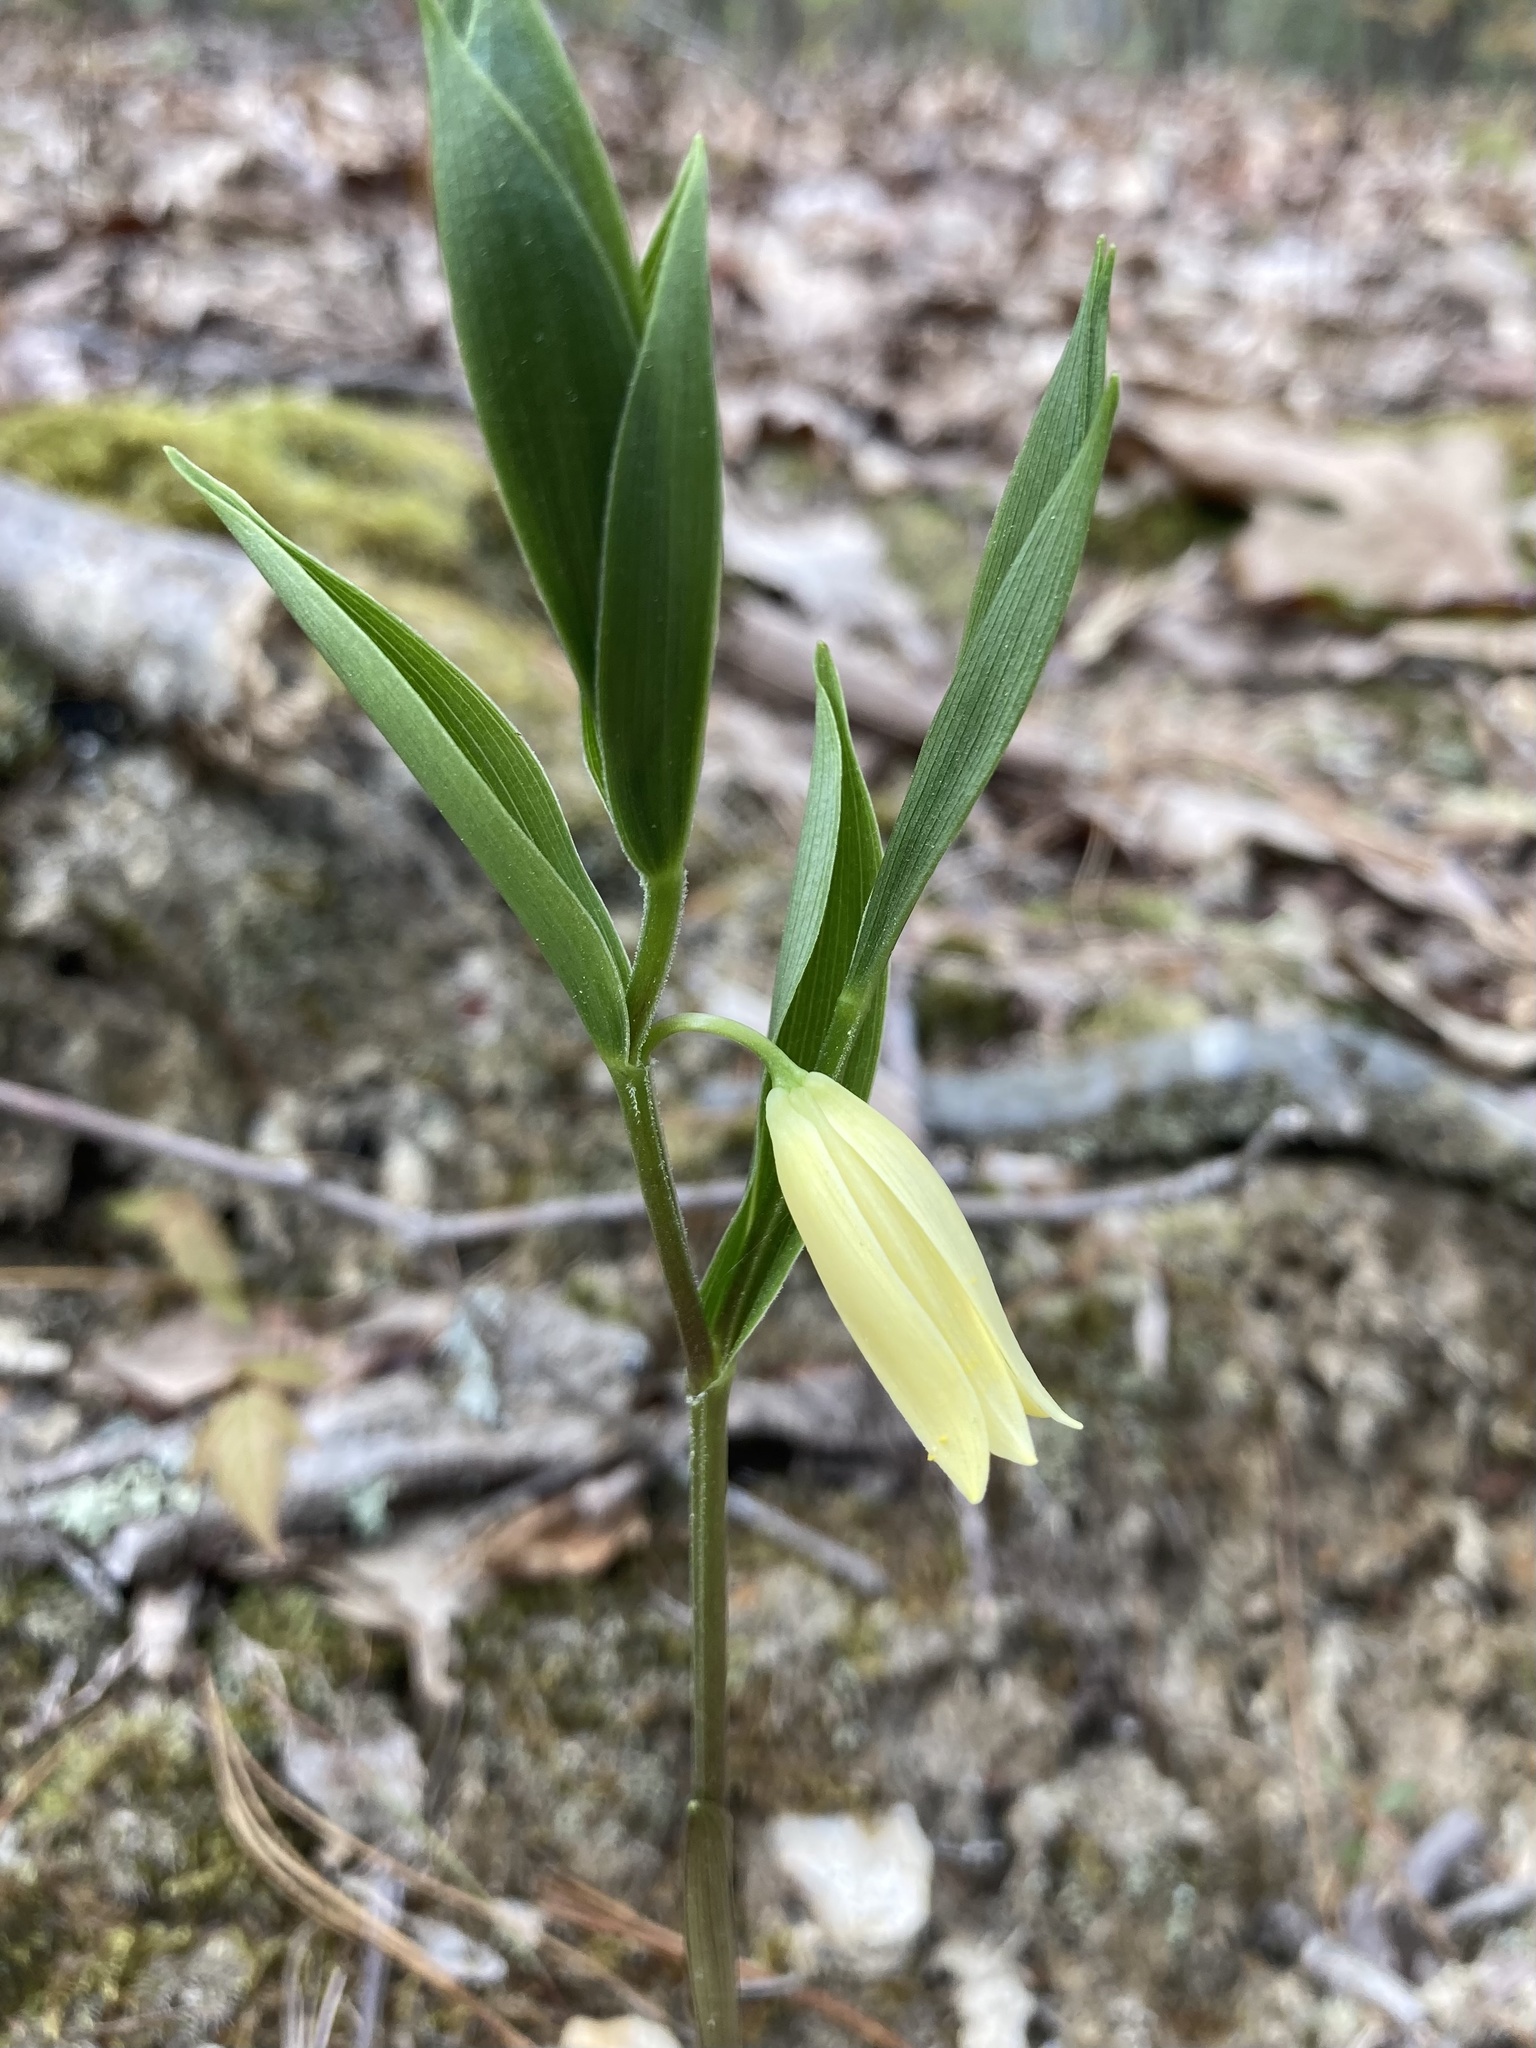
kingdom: Plantae
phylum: Tracheophyta
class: Liliopsida
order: Liliales
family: Colchicaceae
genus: Uvularia
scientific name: Uvularia puberula
